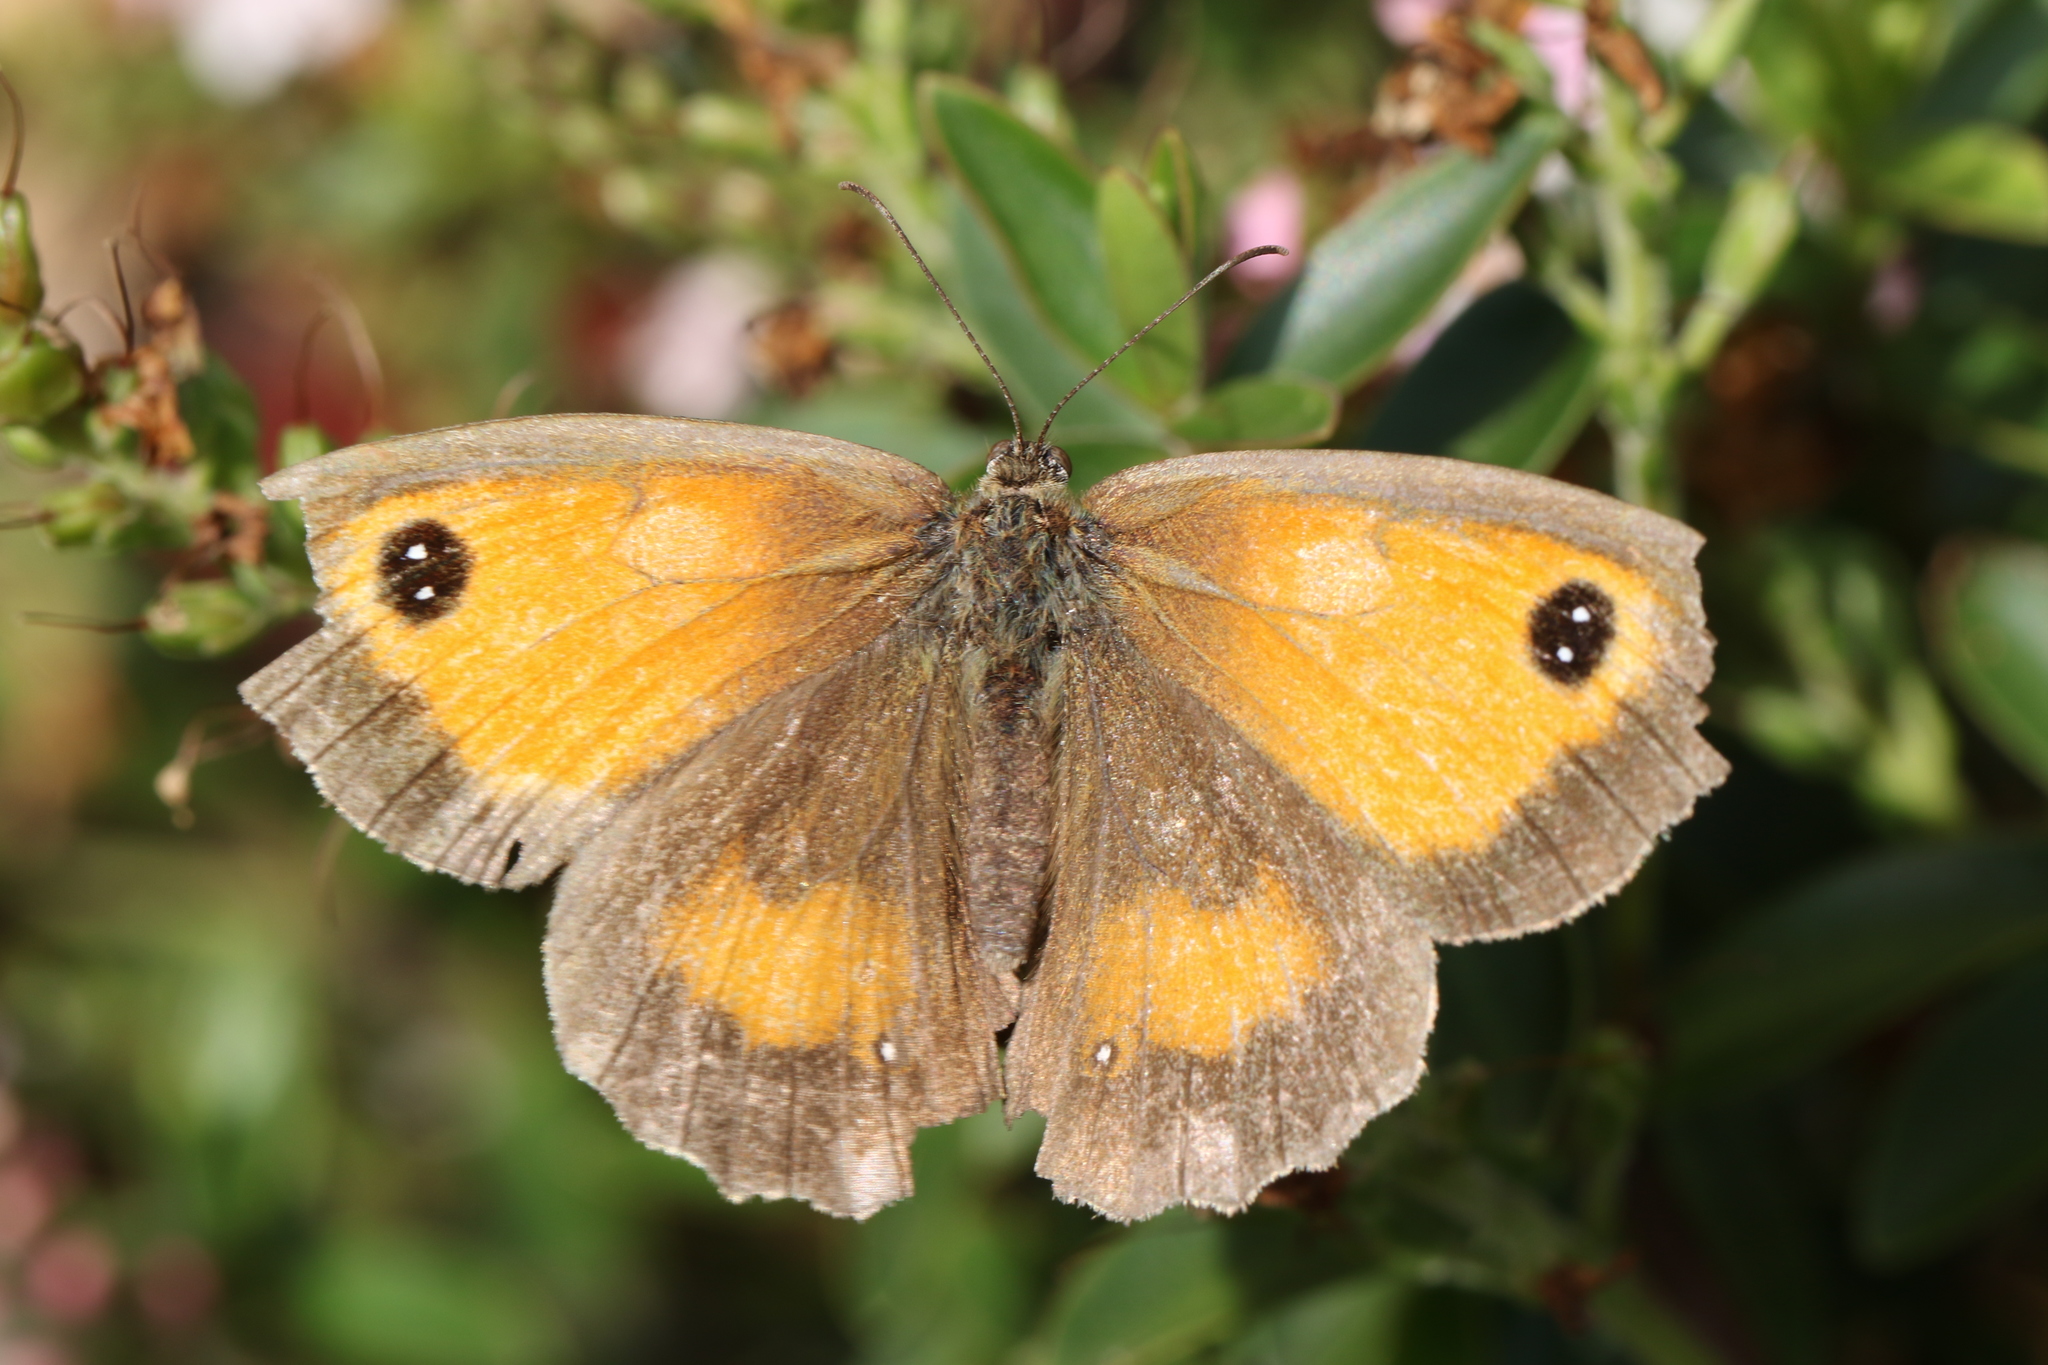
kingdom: Animalia
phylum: Arthropoda
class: Insecta
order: Lepidoptera
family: Nymphalidae
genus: Pyronia
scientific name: Pyronia tithonus
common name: Gatekeeper
